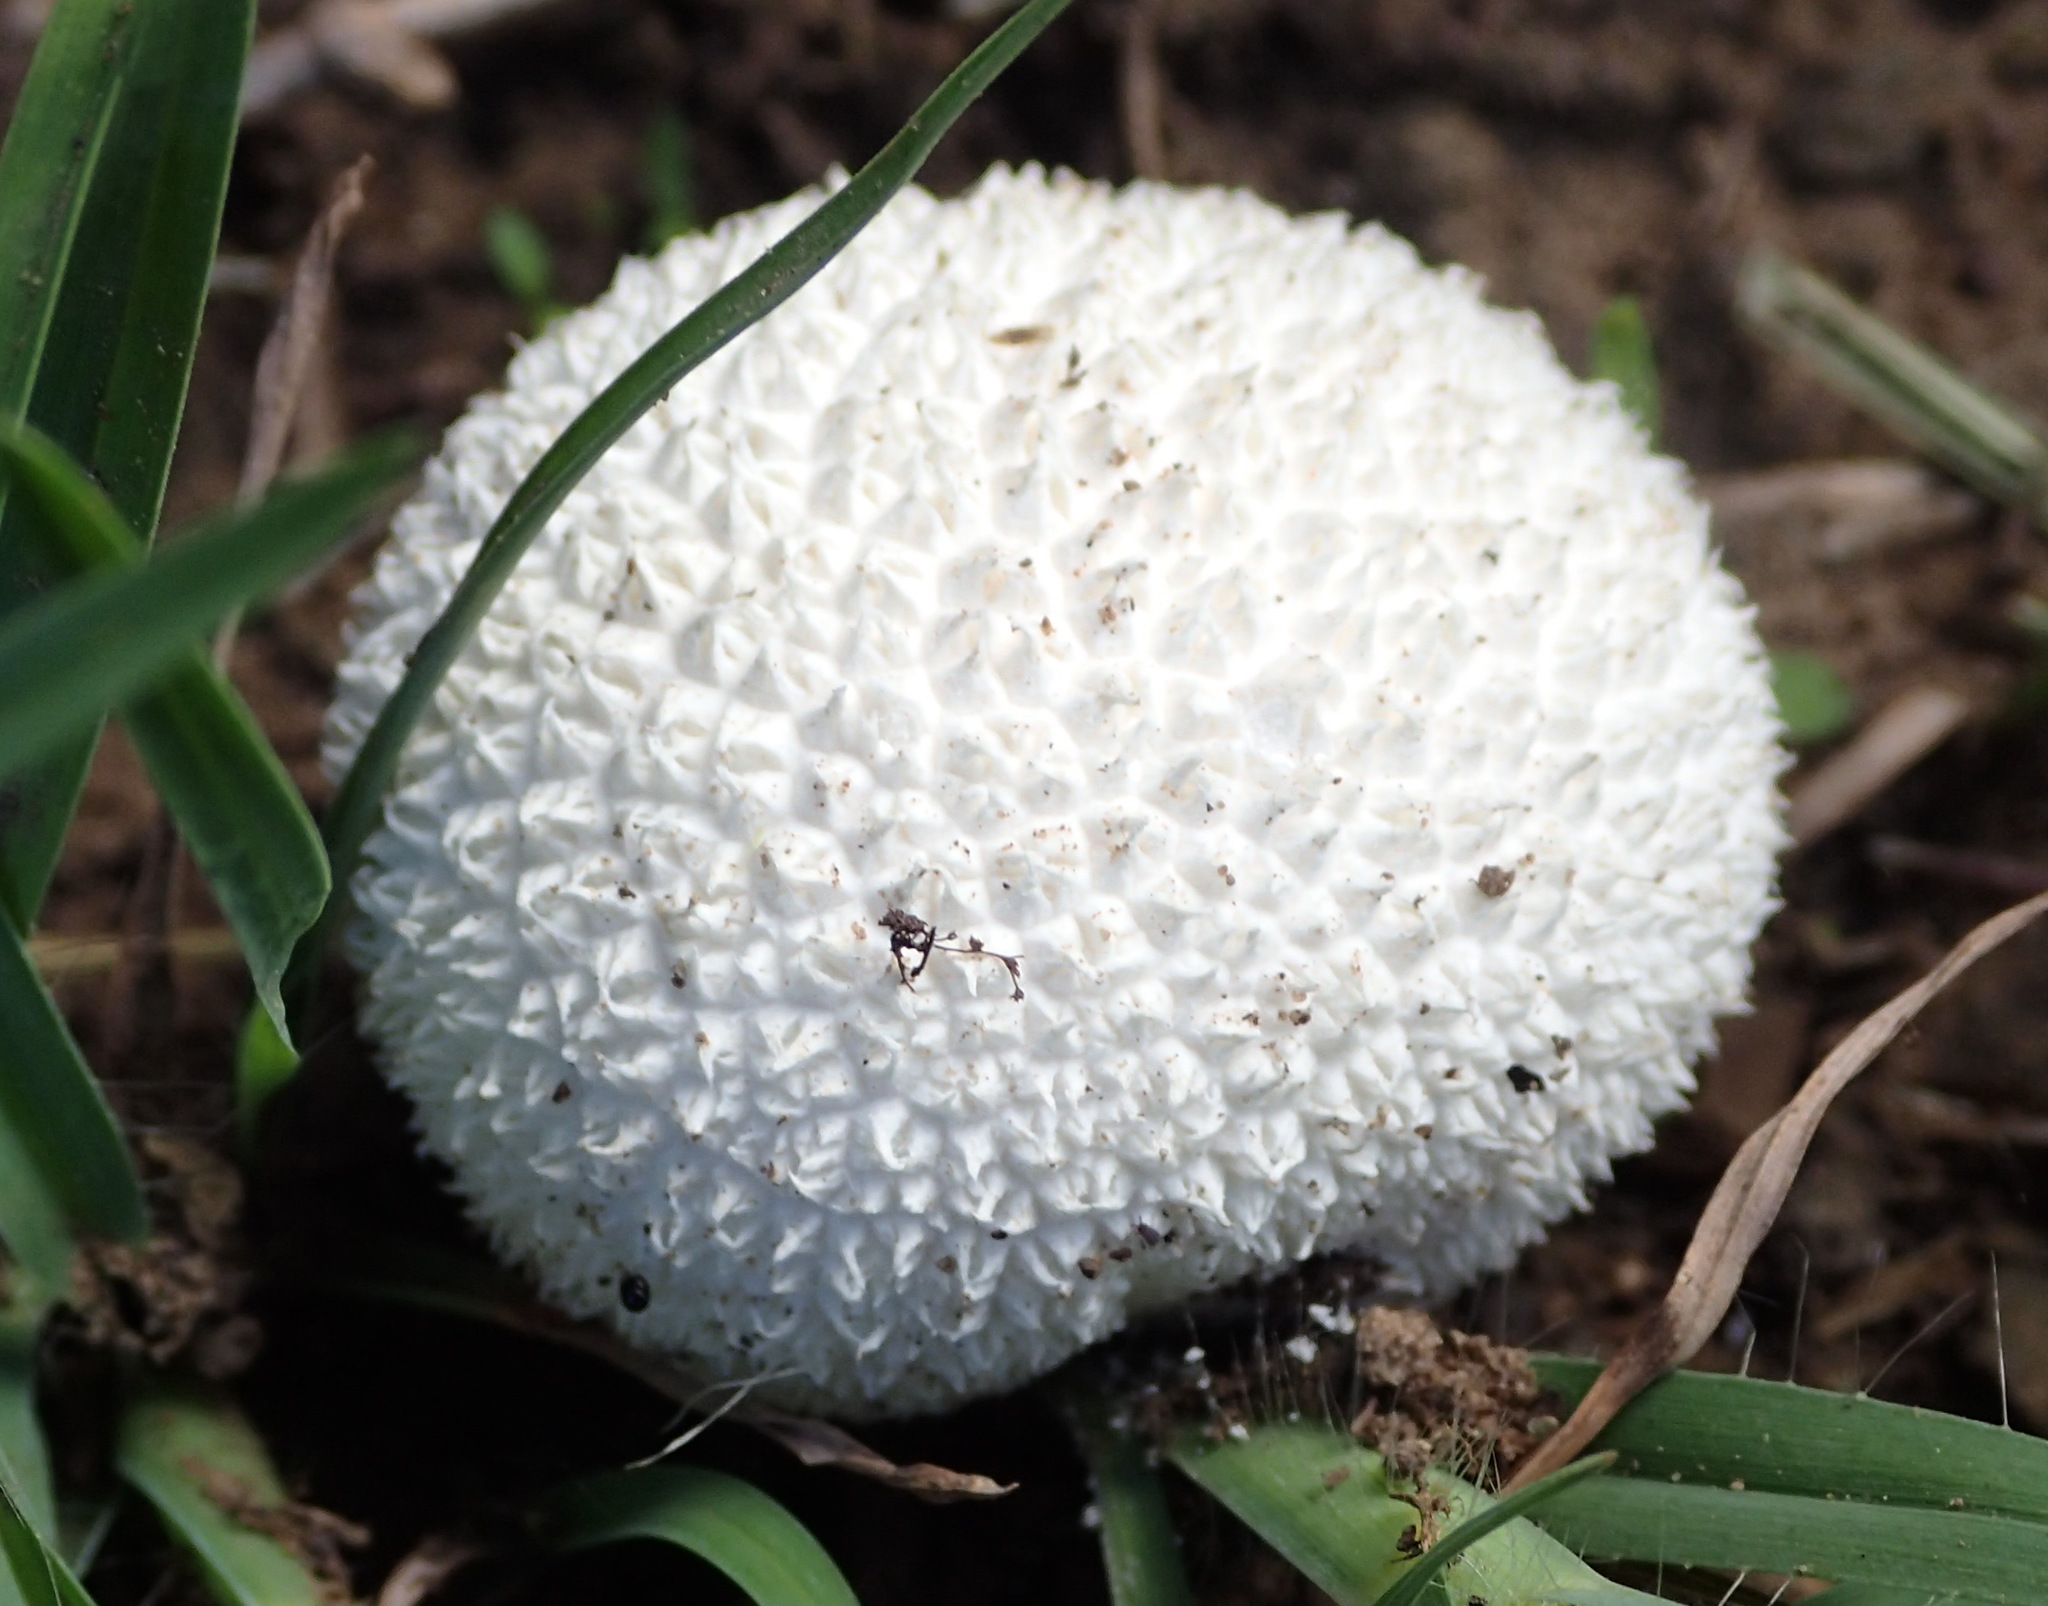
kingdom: Fungi
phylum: Basidiomycota
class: Agaricomycetes
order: Agaricales
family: Lycoperdaceae
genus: Lycoperdon
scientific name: Lycoperdon pratense
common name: Meadow puffball
